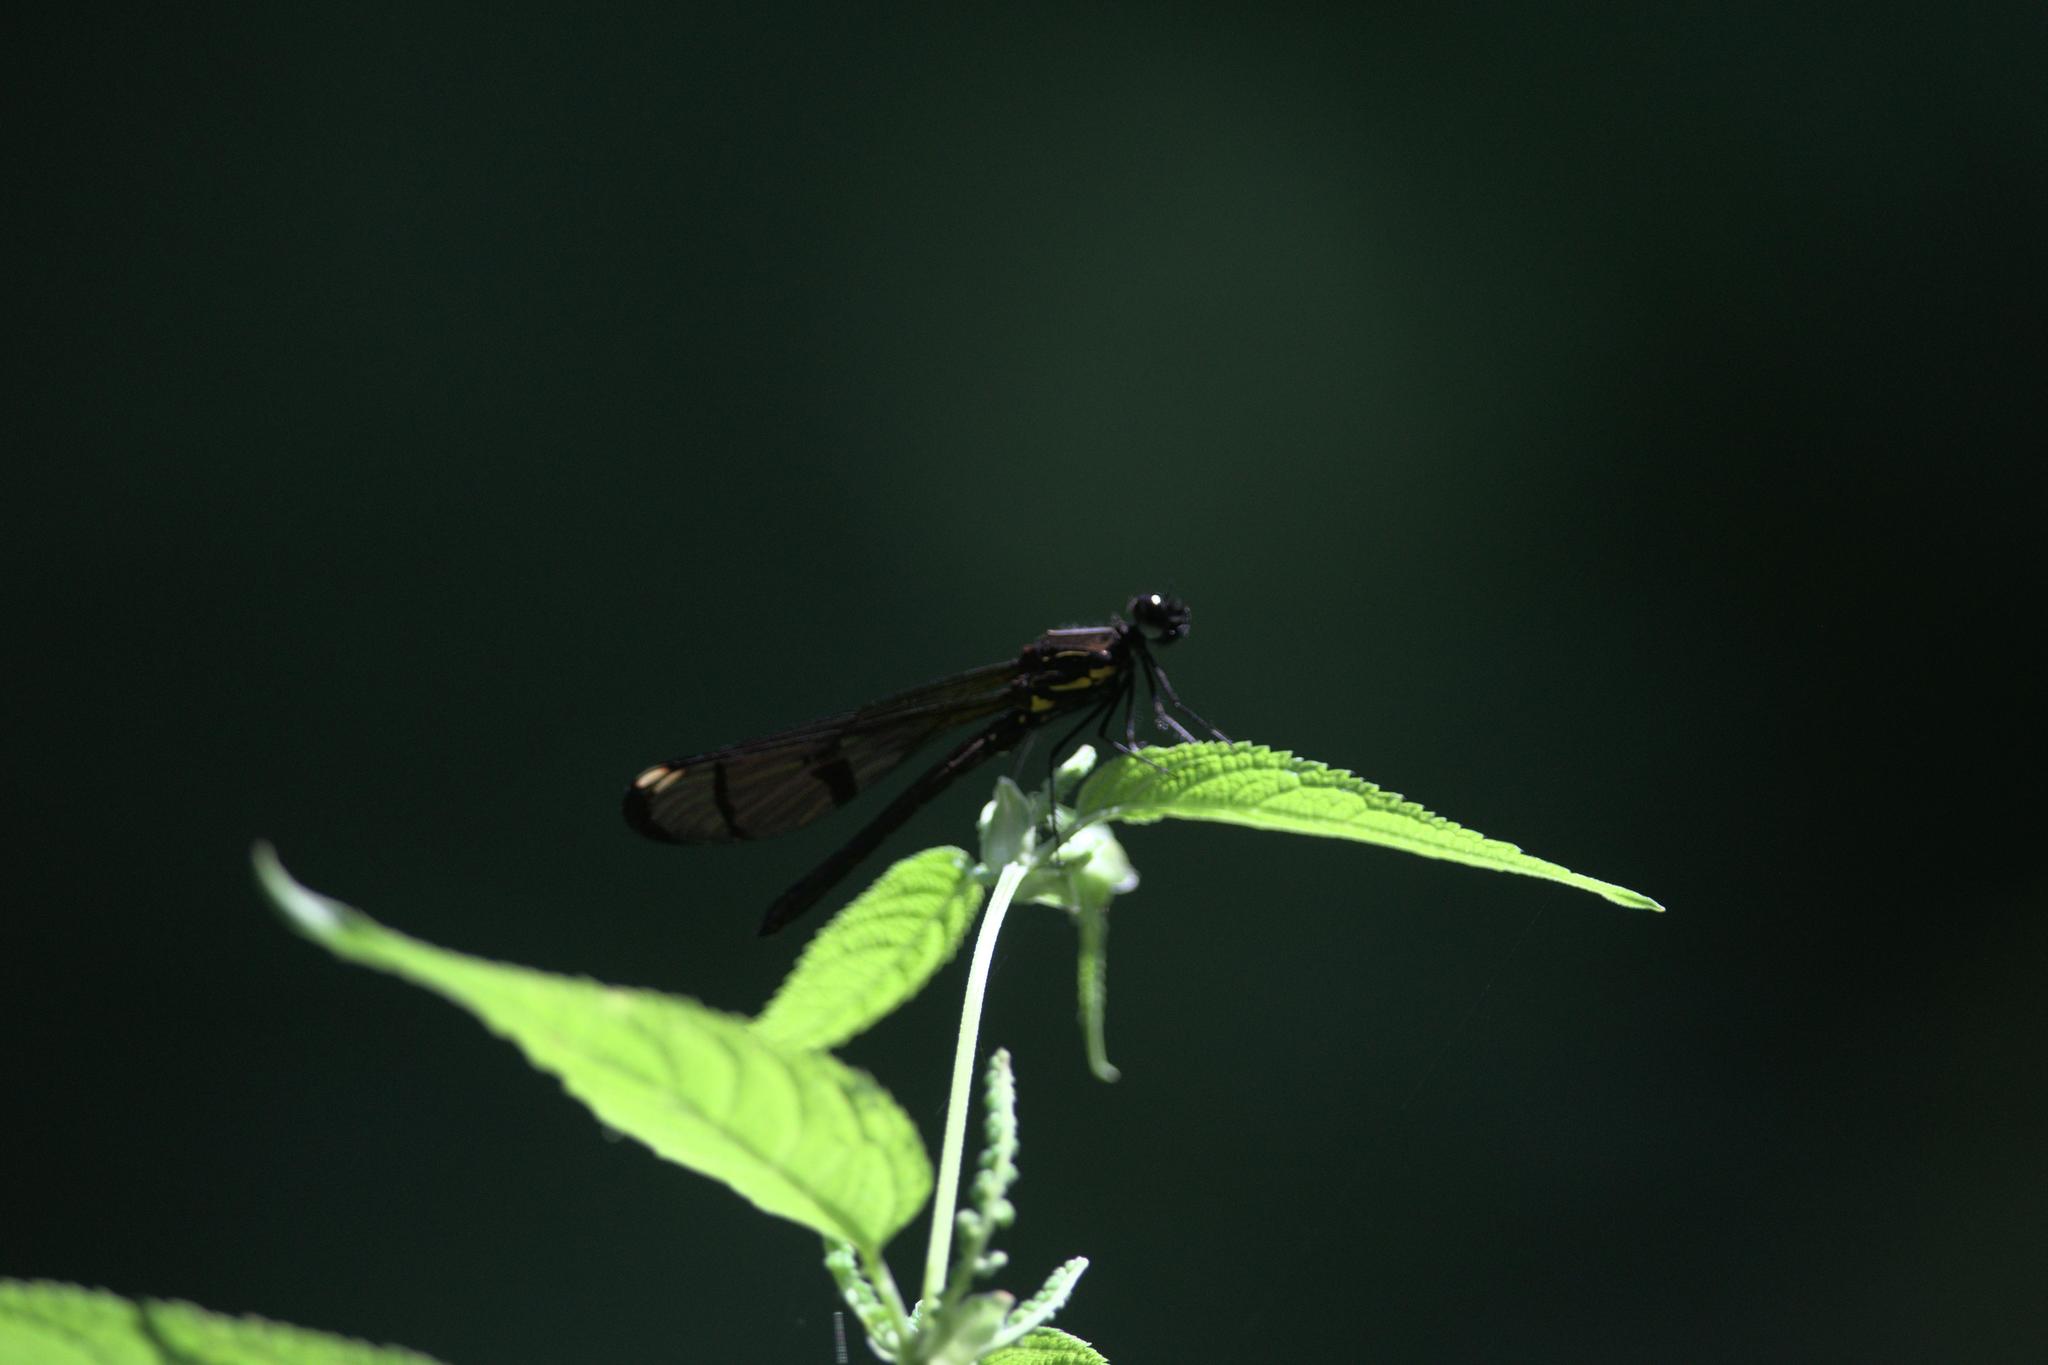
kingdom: Animalia
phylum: Arthropoda
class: Insecta
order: Odonata
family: Chlorocyphidae
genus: Aristocypha
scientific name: Aristocypha trifasciata
